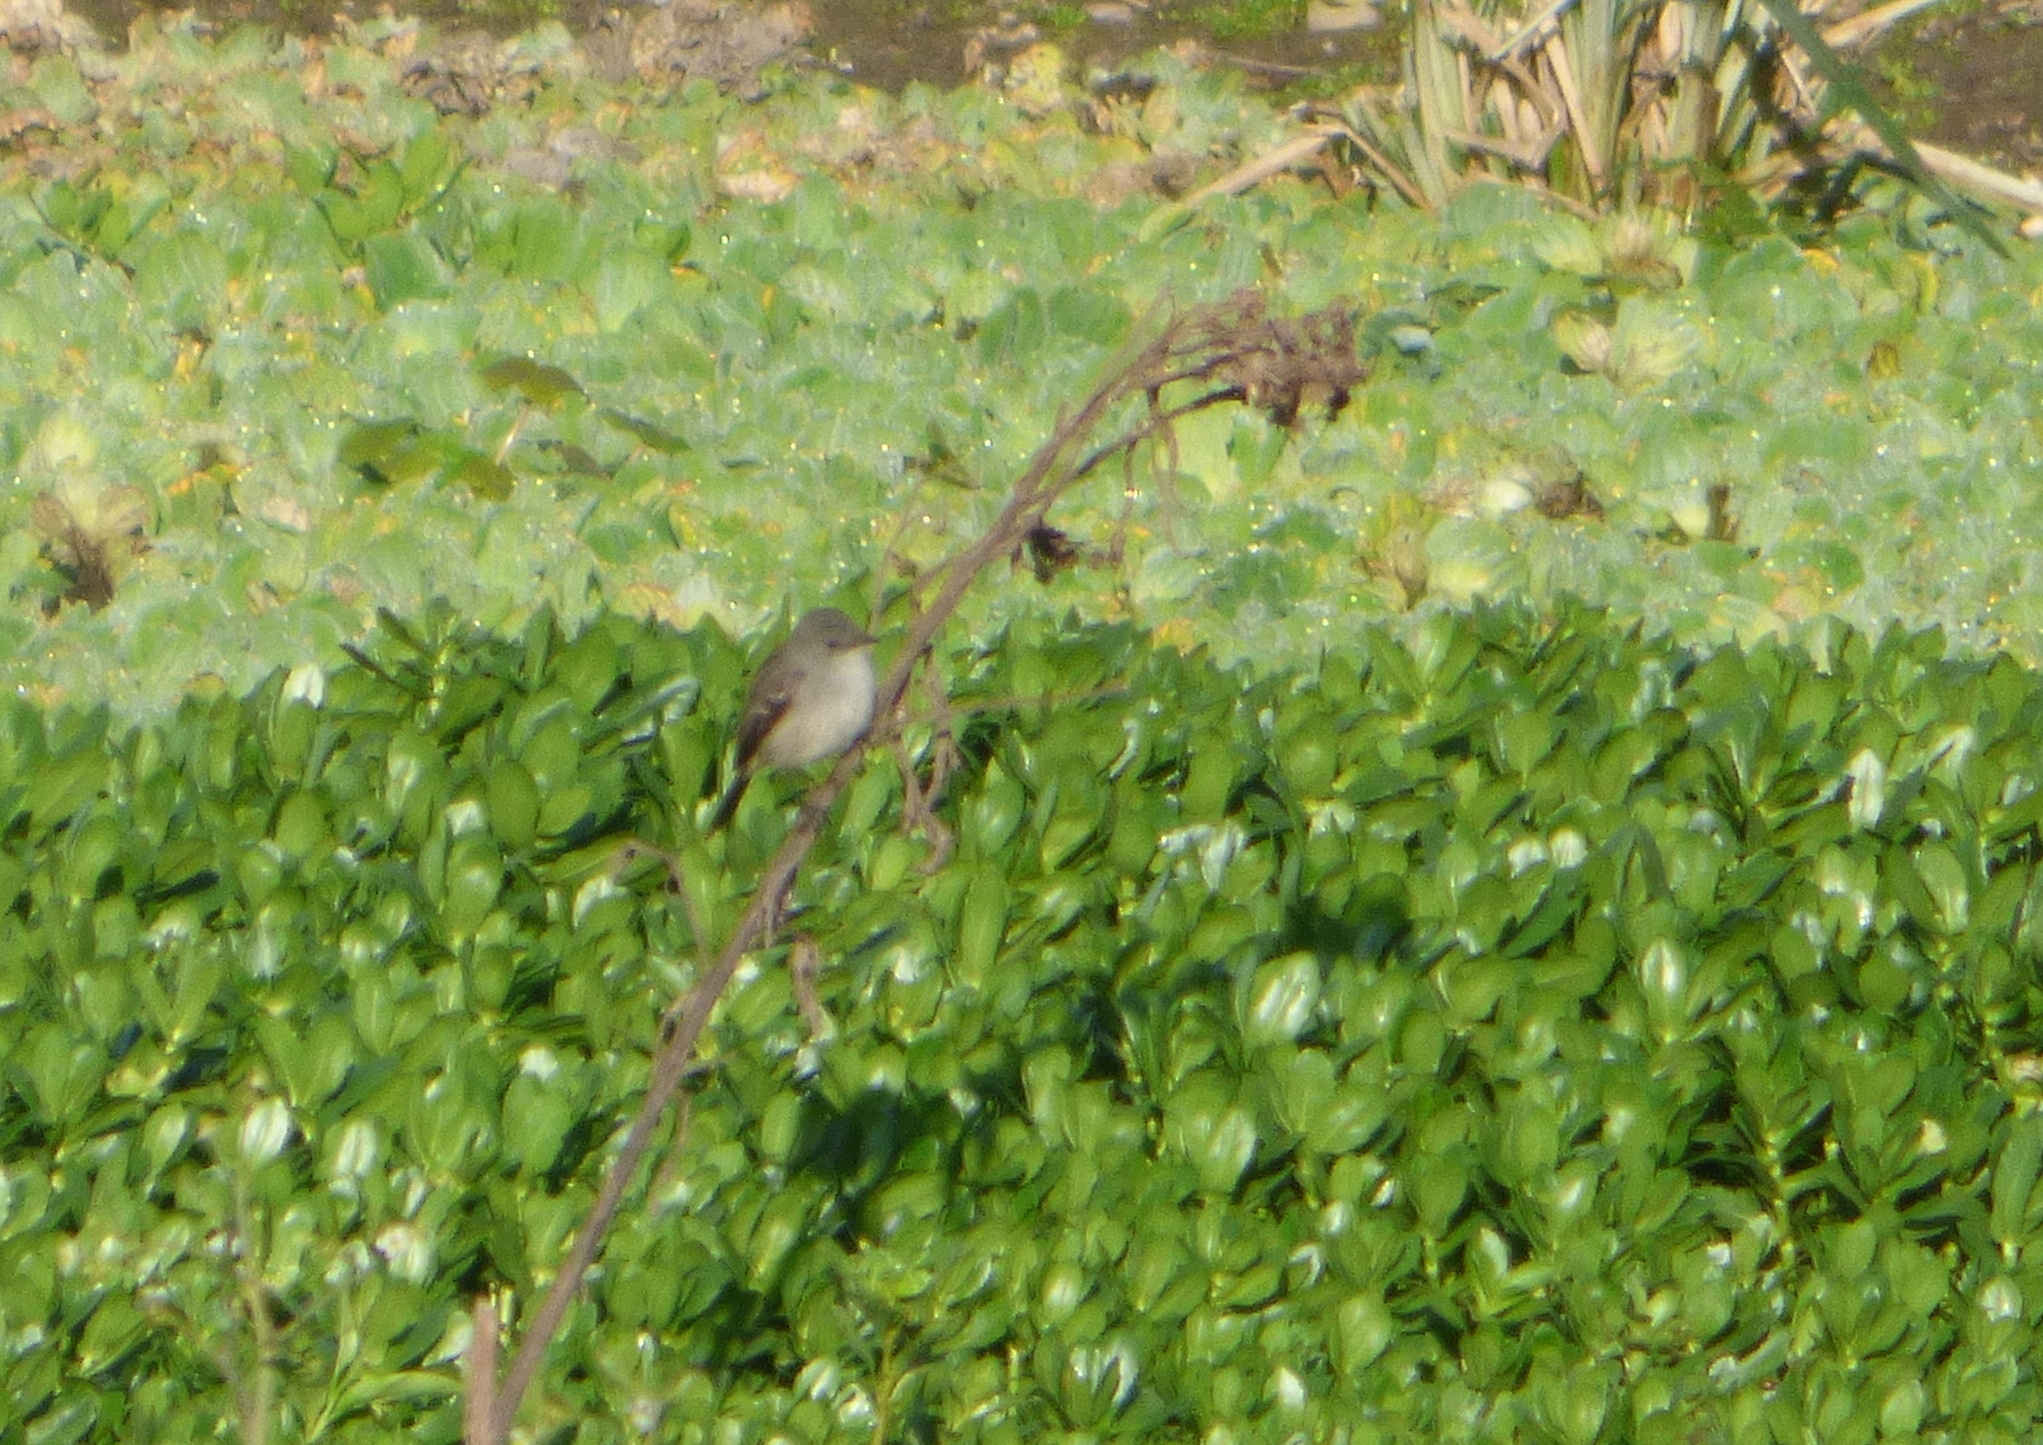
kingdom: Animalia
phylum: Chordata
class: Aves
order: Passeriformes
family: Tyrannidae
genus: Serpophaga
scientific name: Serpophaga nigricans
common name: Sooty tyrannulet
